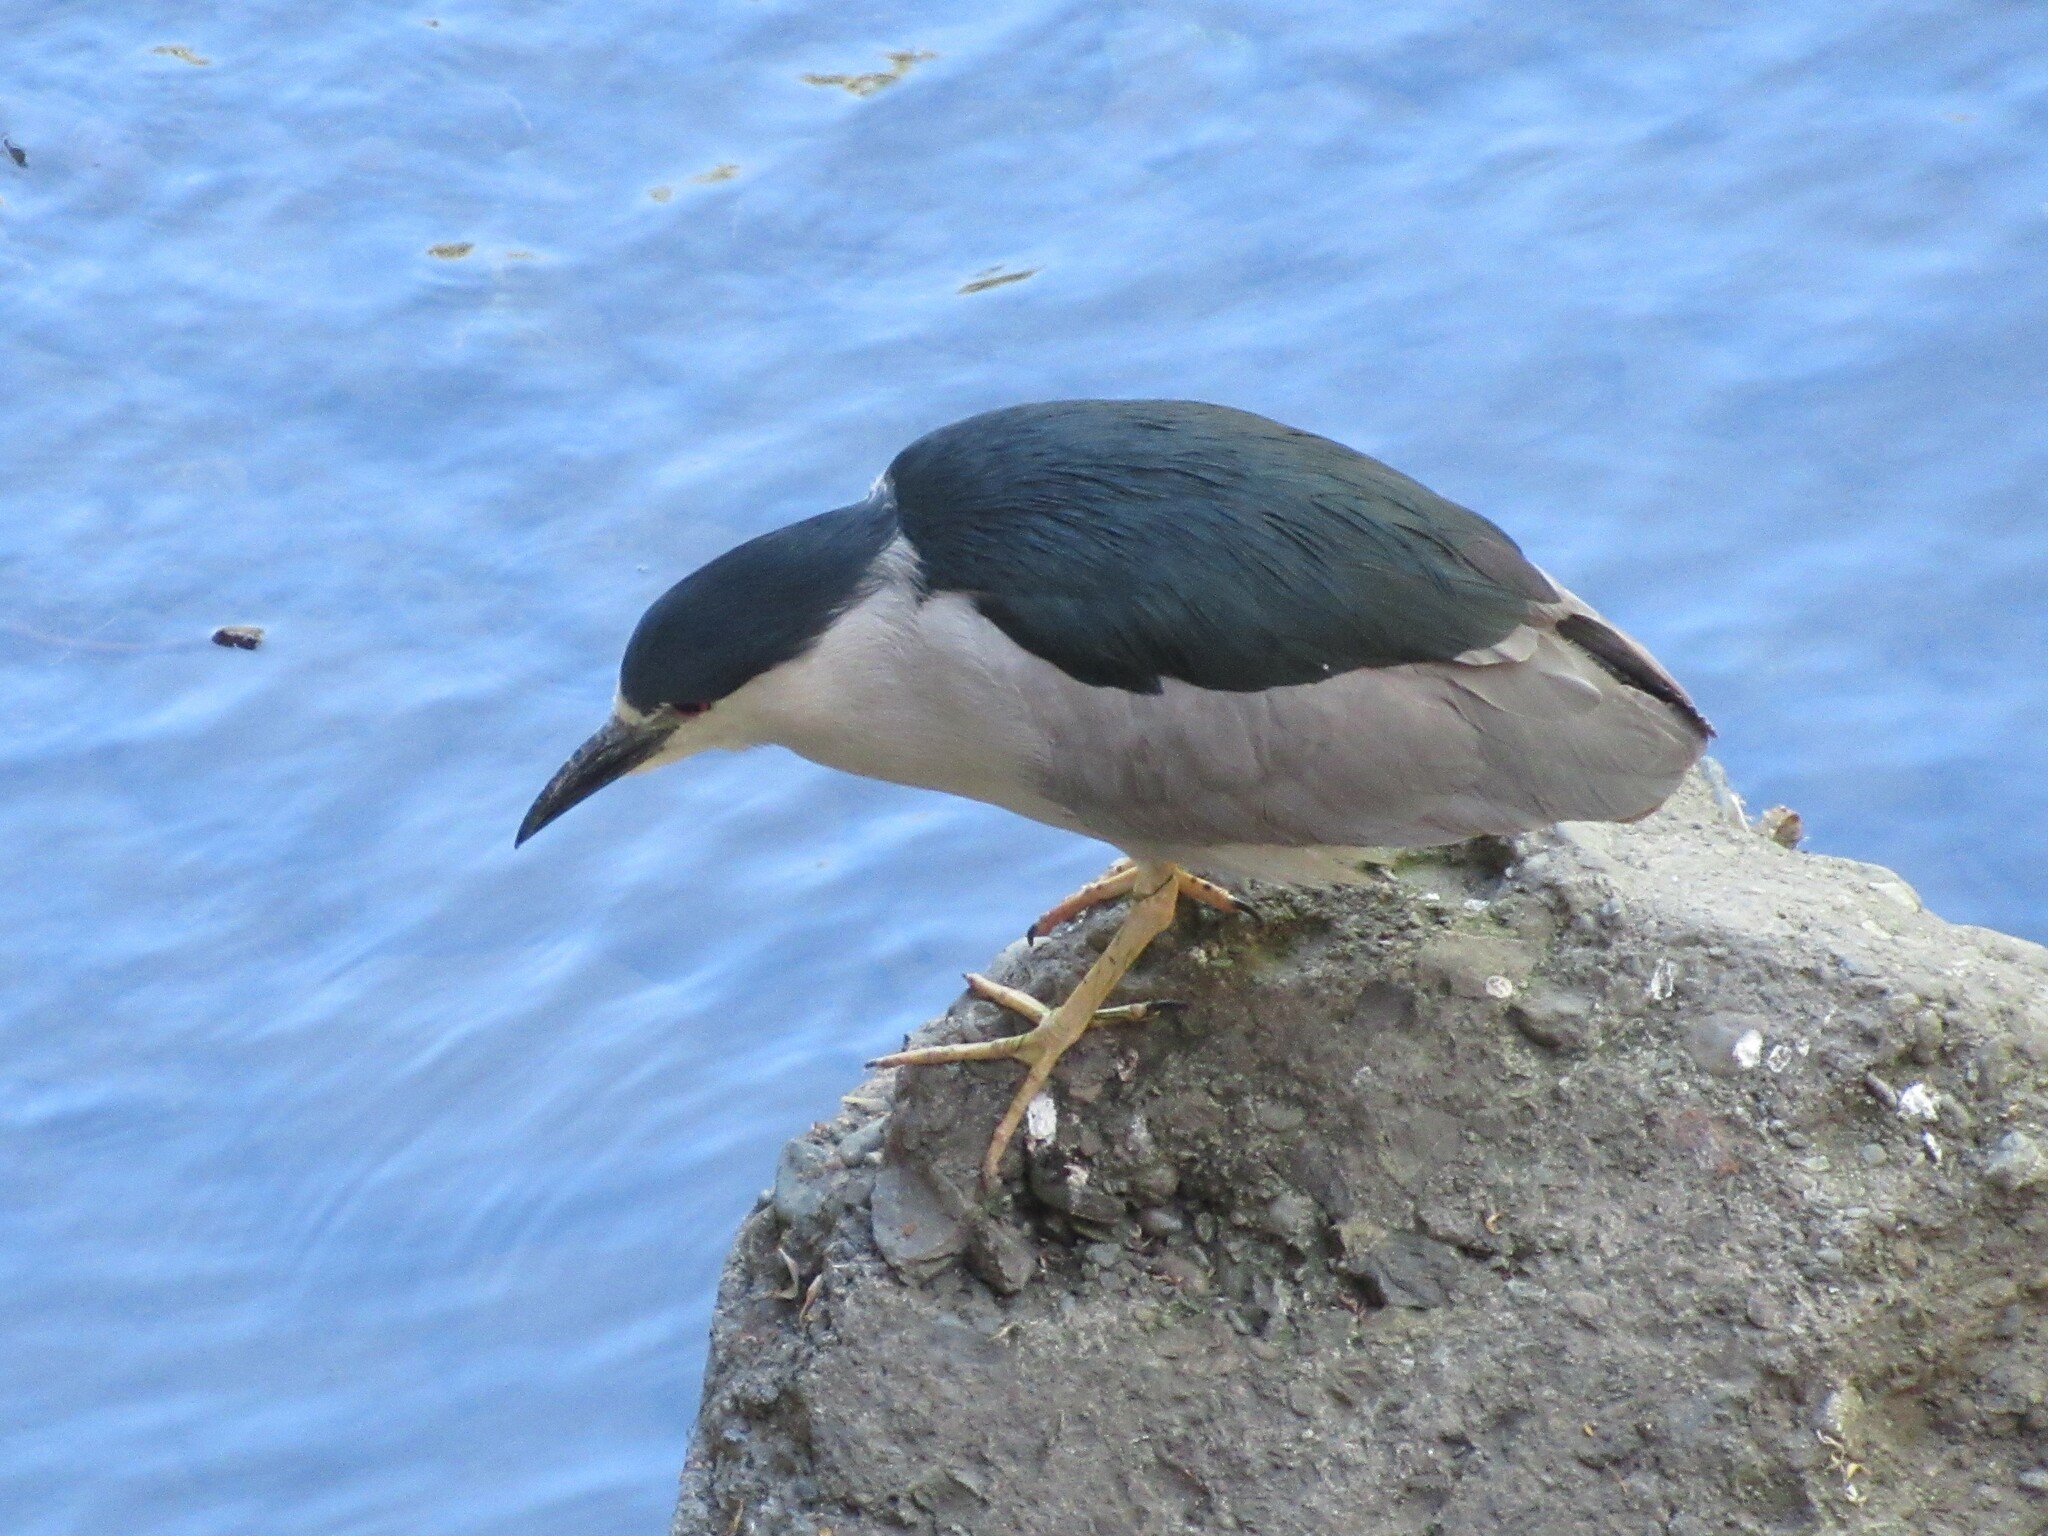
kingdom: Animalia
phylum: Chordata
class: Aves
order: Pelecaniformes
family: Ardeidae
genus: Nycticorax
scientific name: Nycticorax nycticorax
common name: Black-crowned night heron
